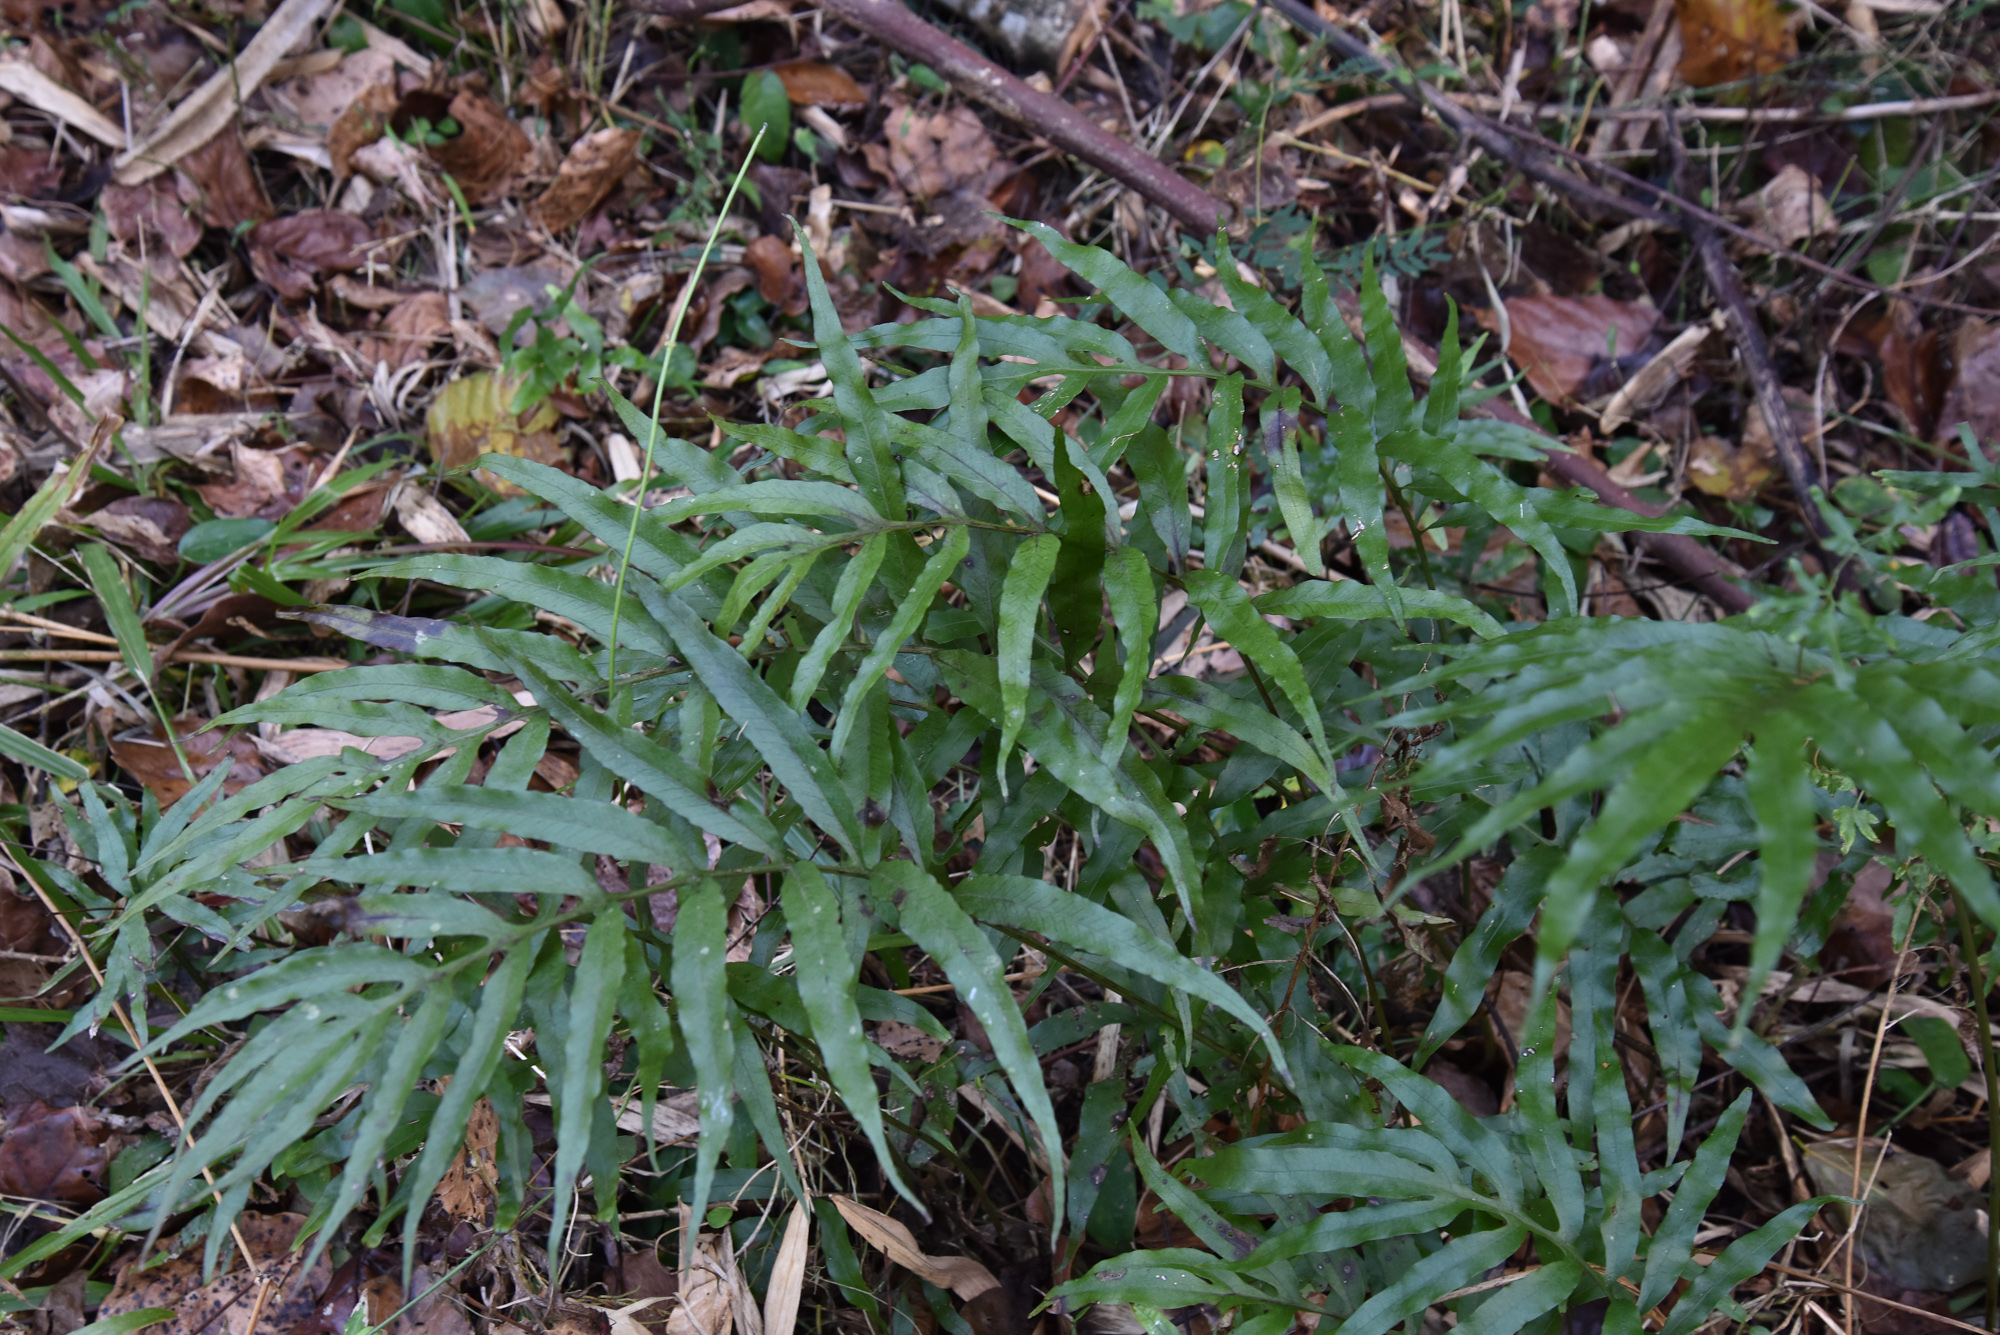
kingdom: Plantae
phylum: Tracheophyta
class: Polypodiopsida
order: Polypodiales
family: Polypodiaceae
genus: Leptochilus
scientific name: Leptochilus ellipticus
